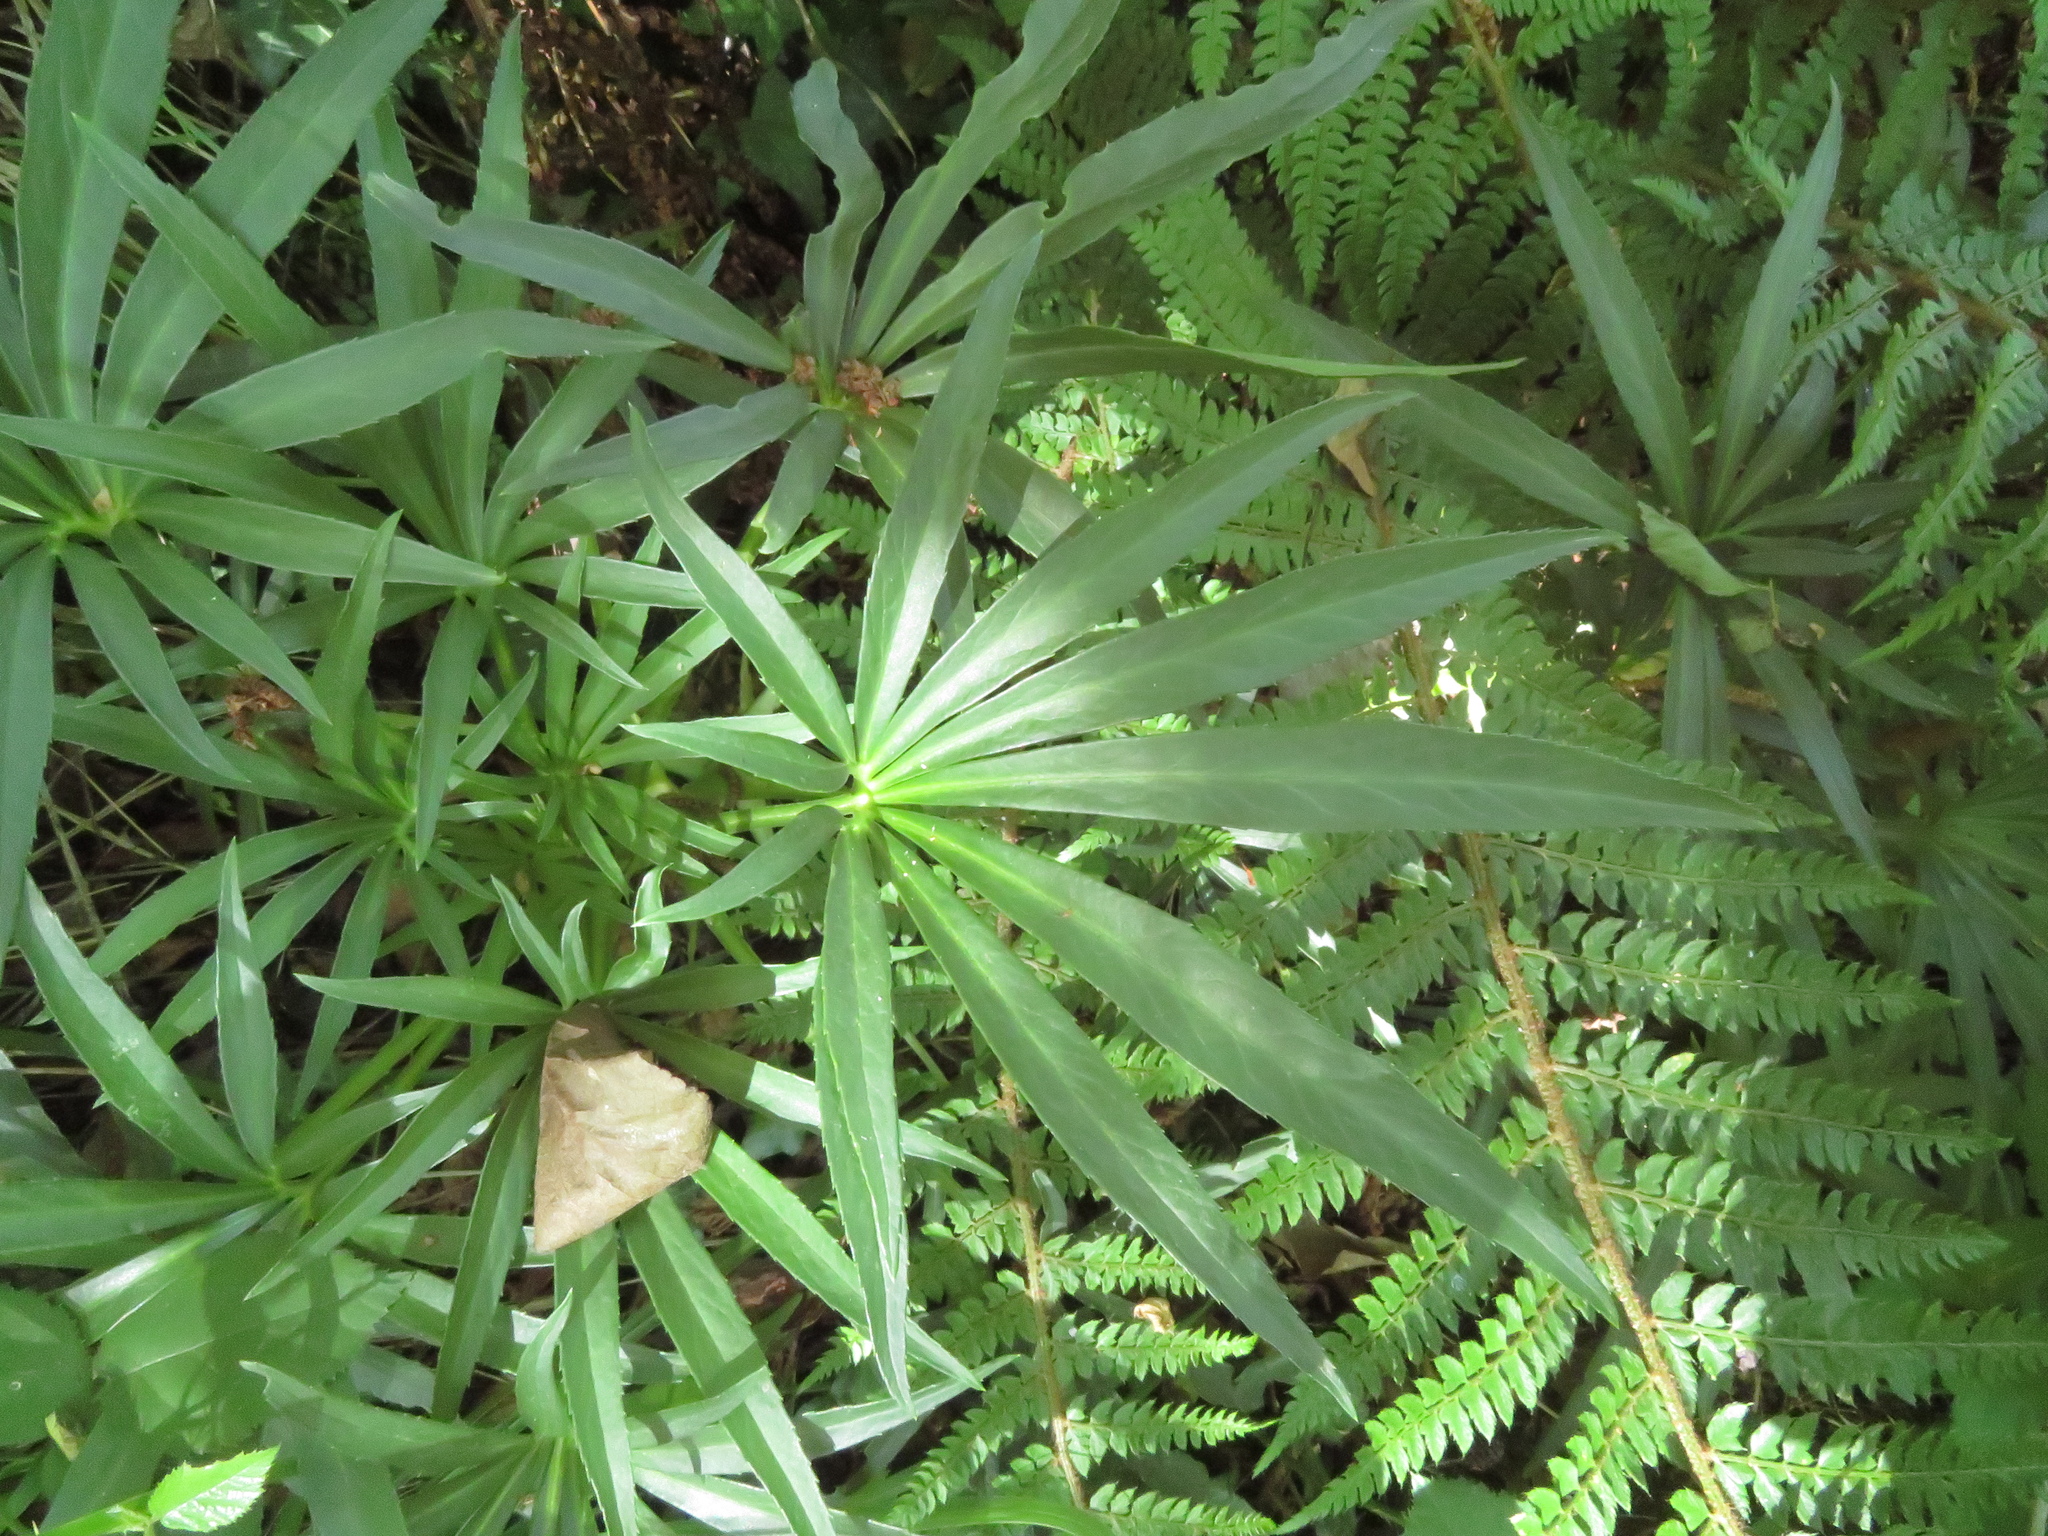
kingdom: Plantae
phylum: Tracheophyta
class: Magnoliopsida
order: Ranunculales
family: Ranunculaceae
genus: Helleborus
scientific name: Helleborus foetidus
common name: Stinking hellebore
